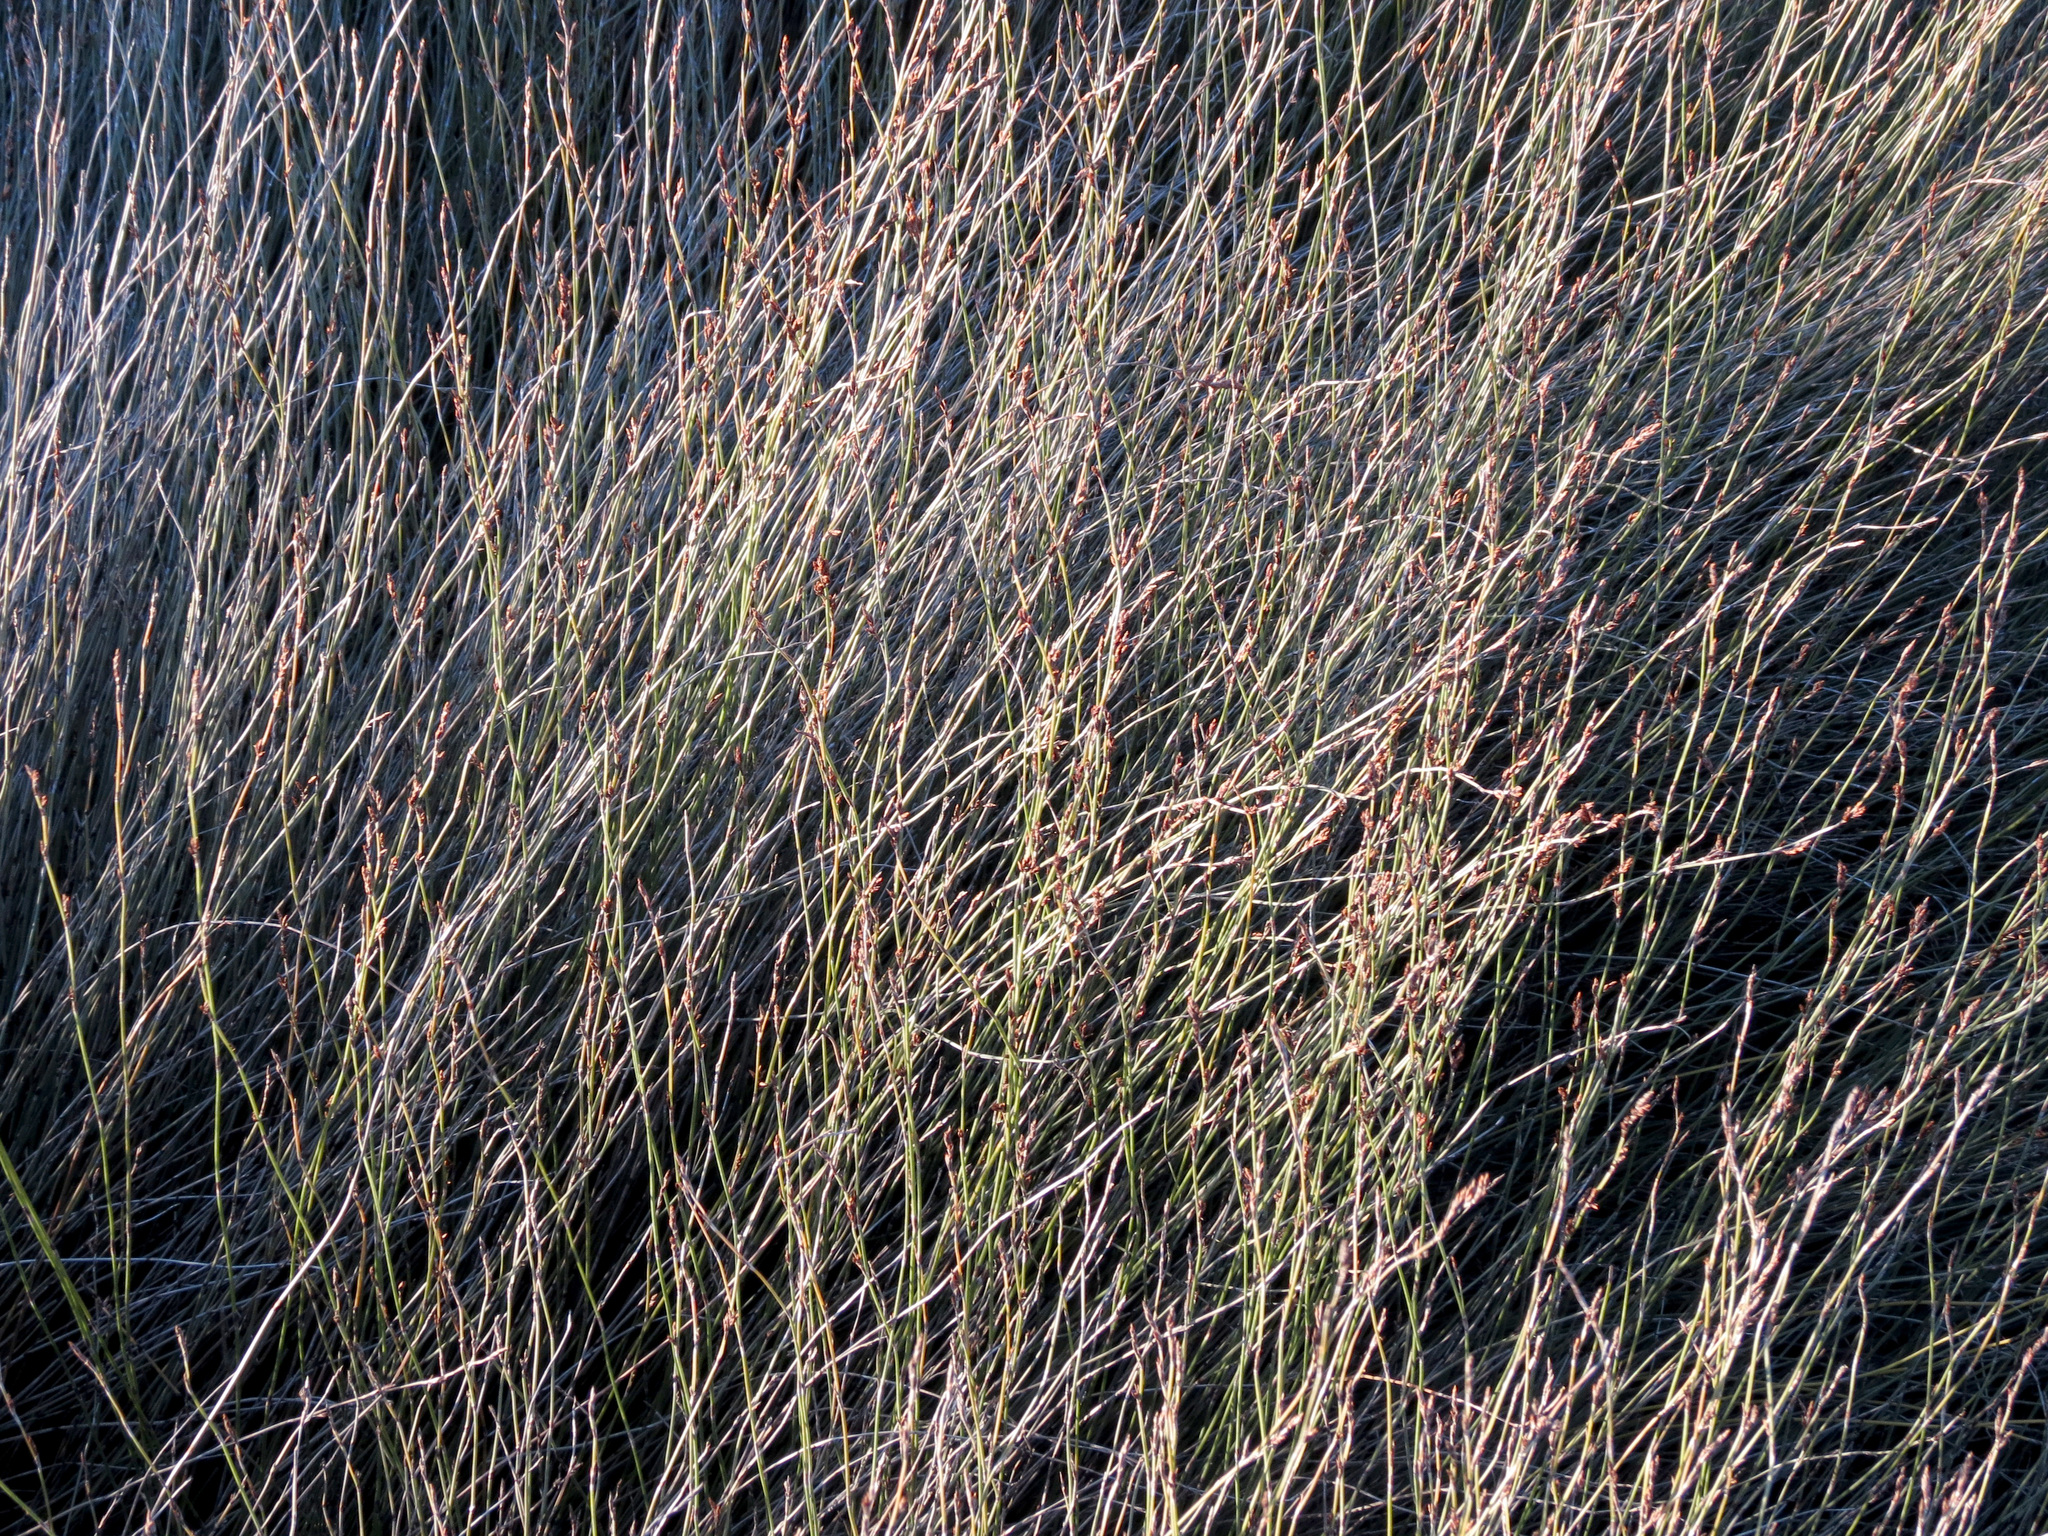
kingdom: Plantae
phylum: Tracheophyta
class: Liliopsida
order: Poales
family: Restionaceae
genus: Apodasmia
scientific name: Apodasmia similis
